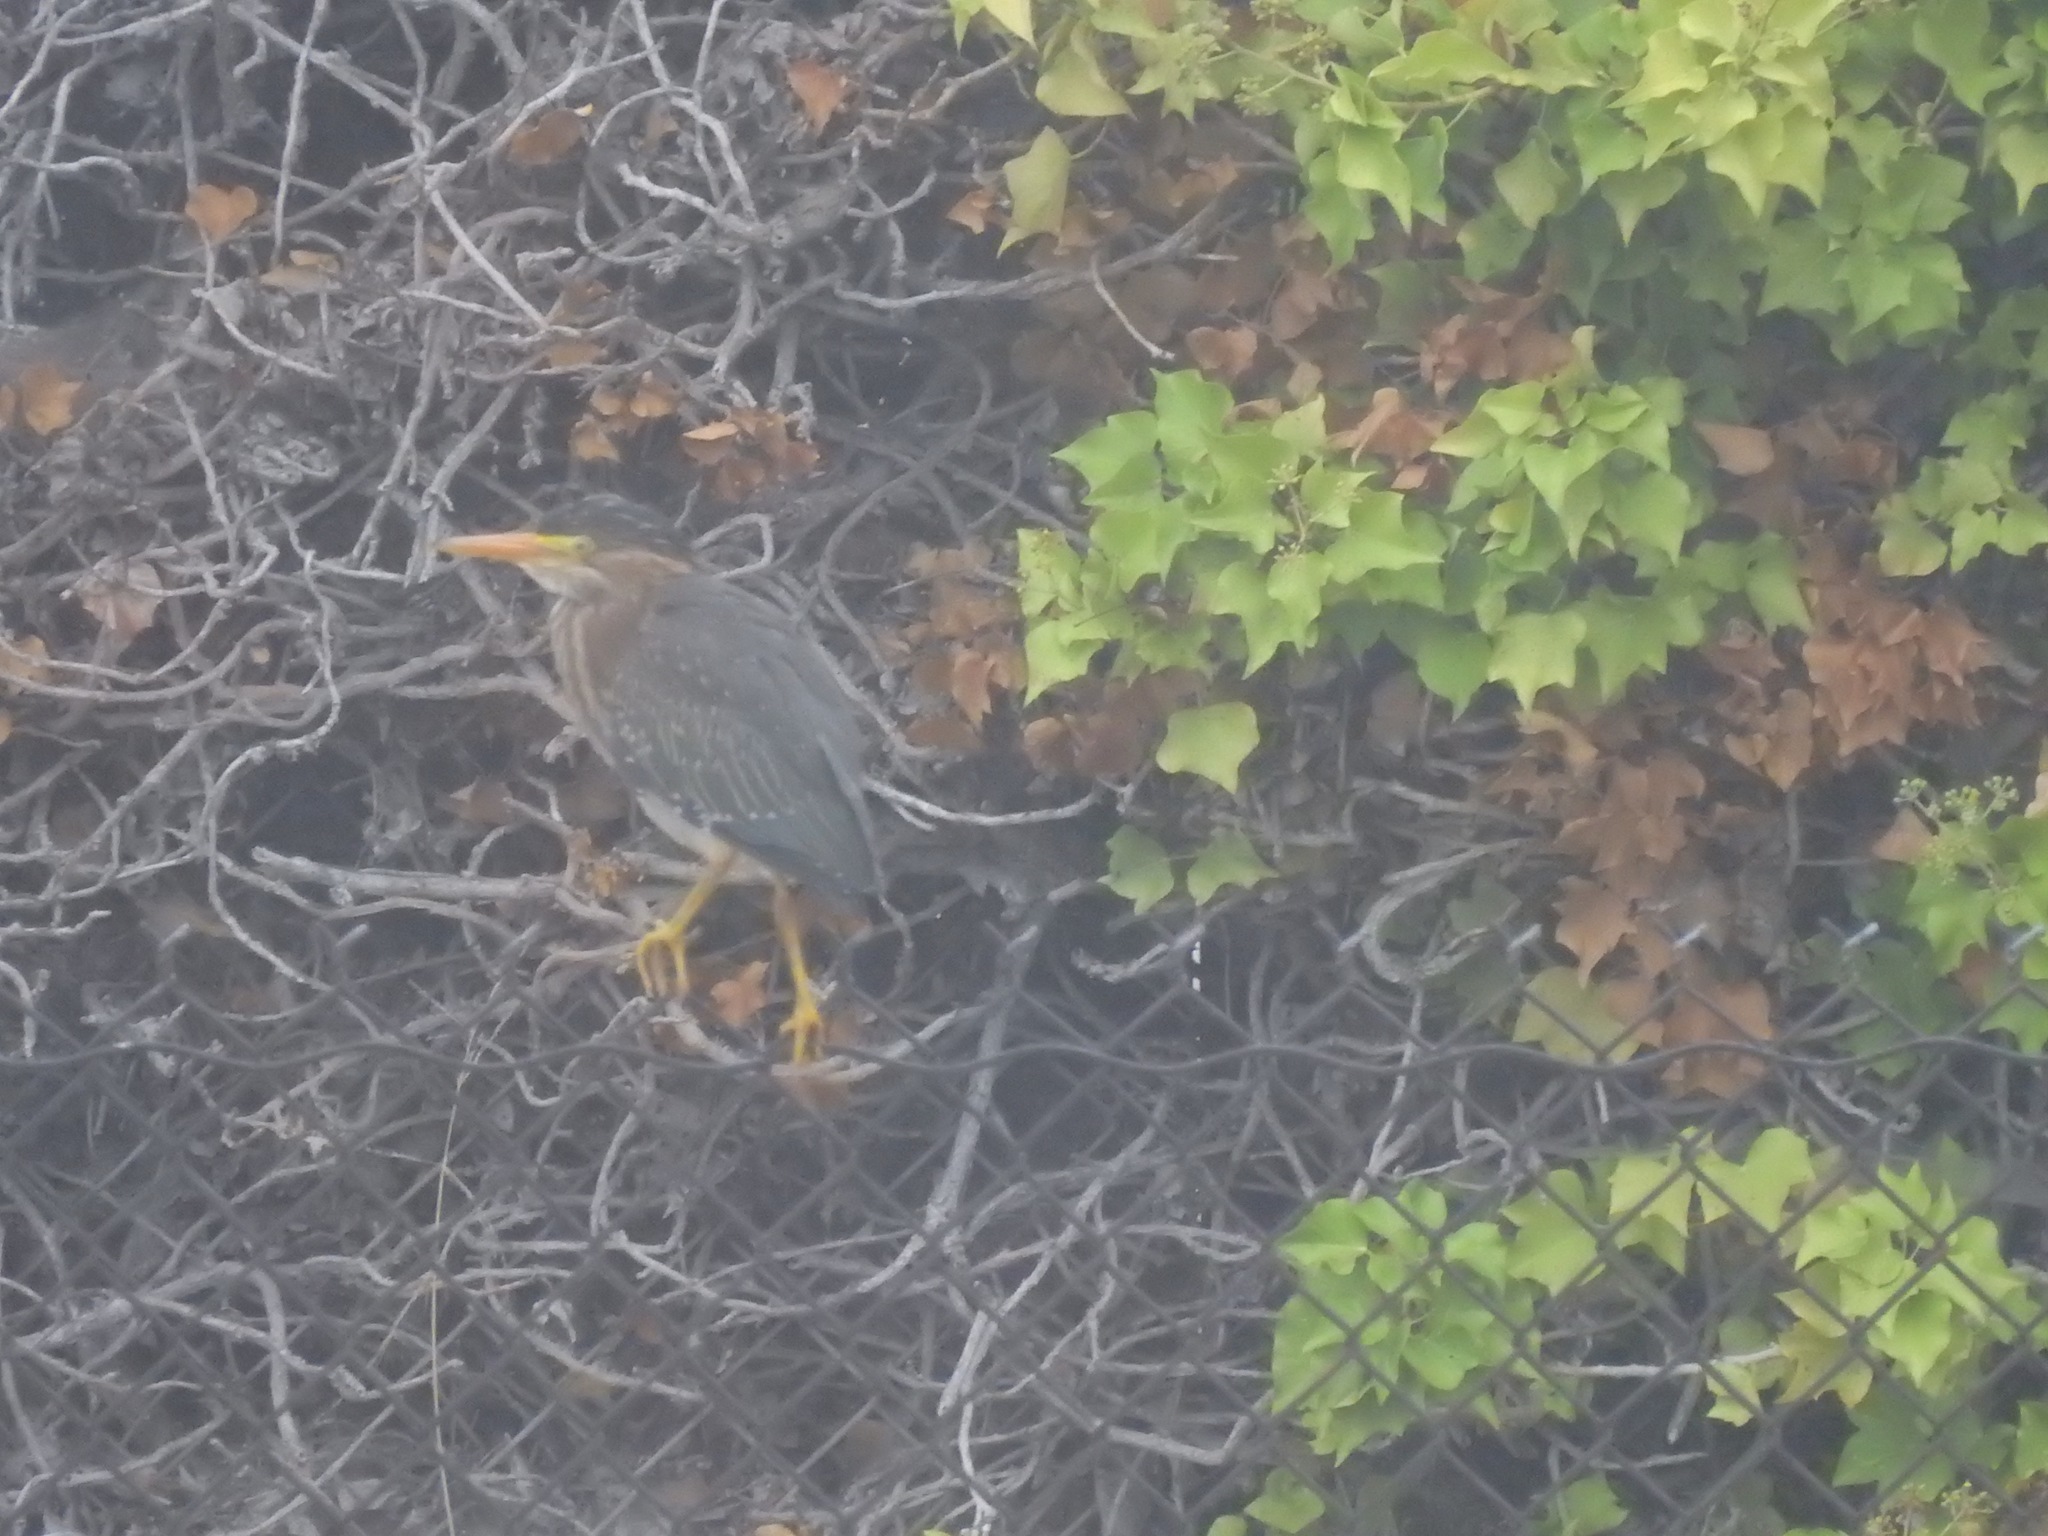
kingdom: Animalia
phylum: Chordata
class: Aves
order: Pelecaniformes
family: Ardeidae
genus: Butorides
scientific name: Butorides virescens
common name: Green heron
